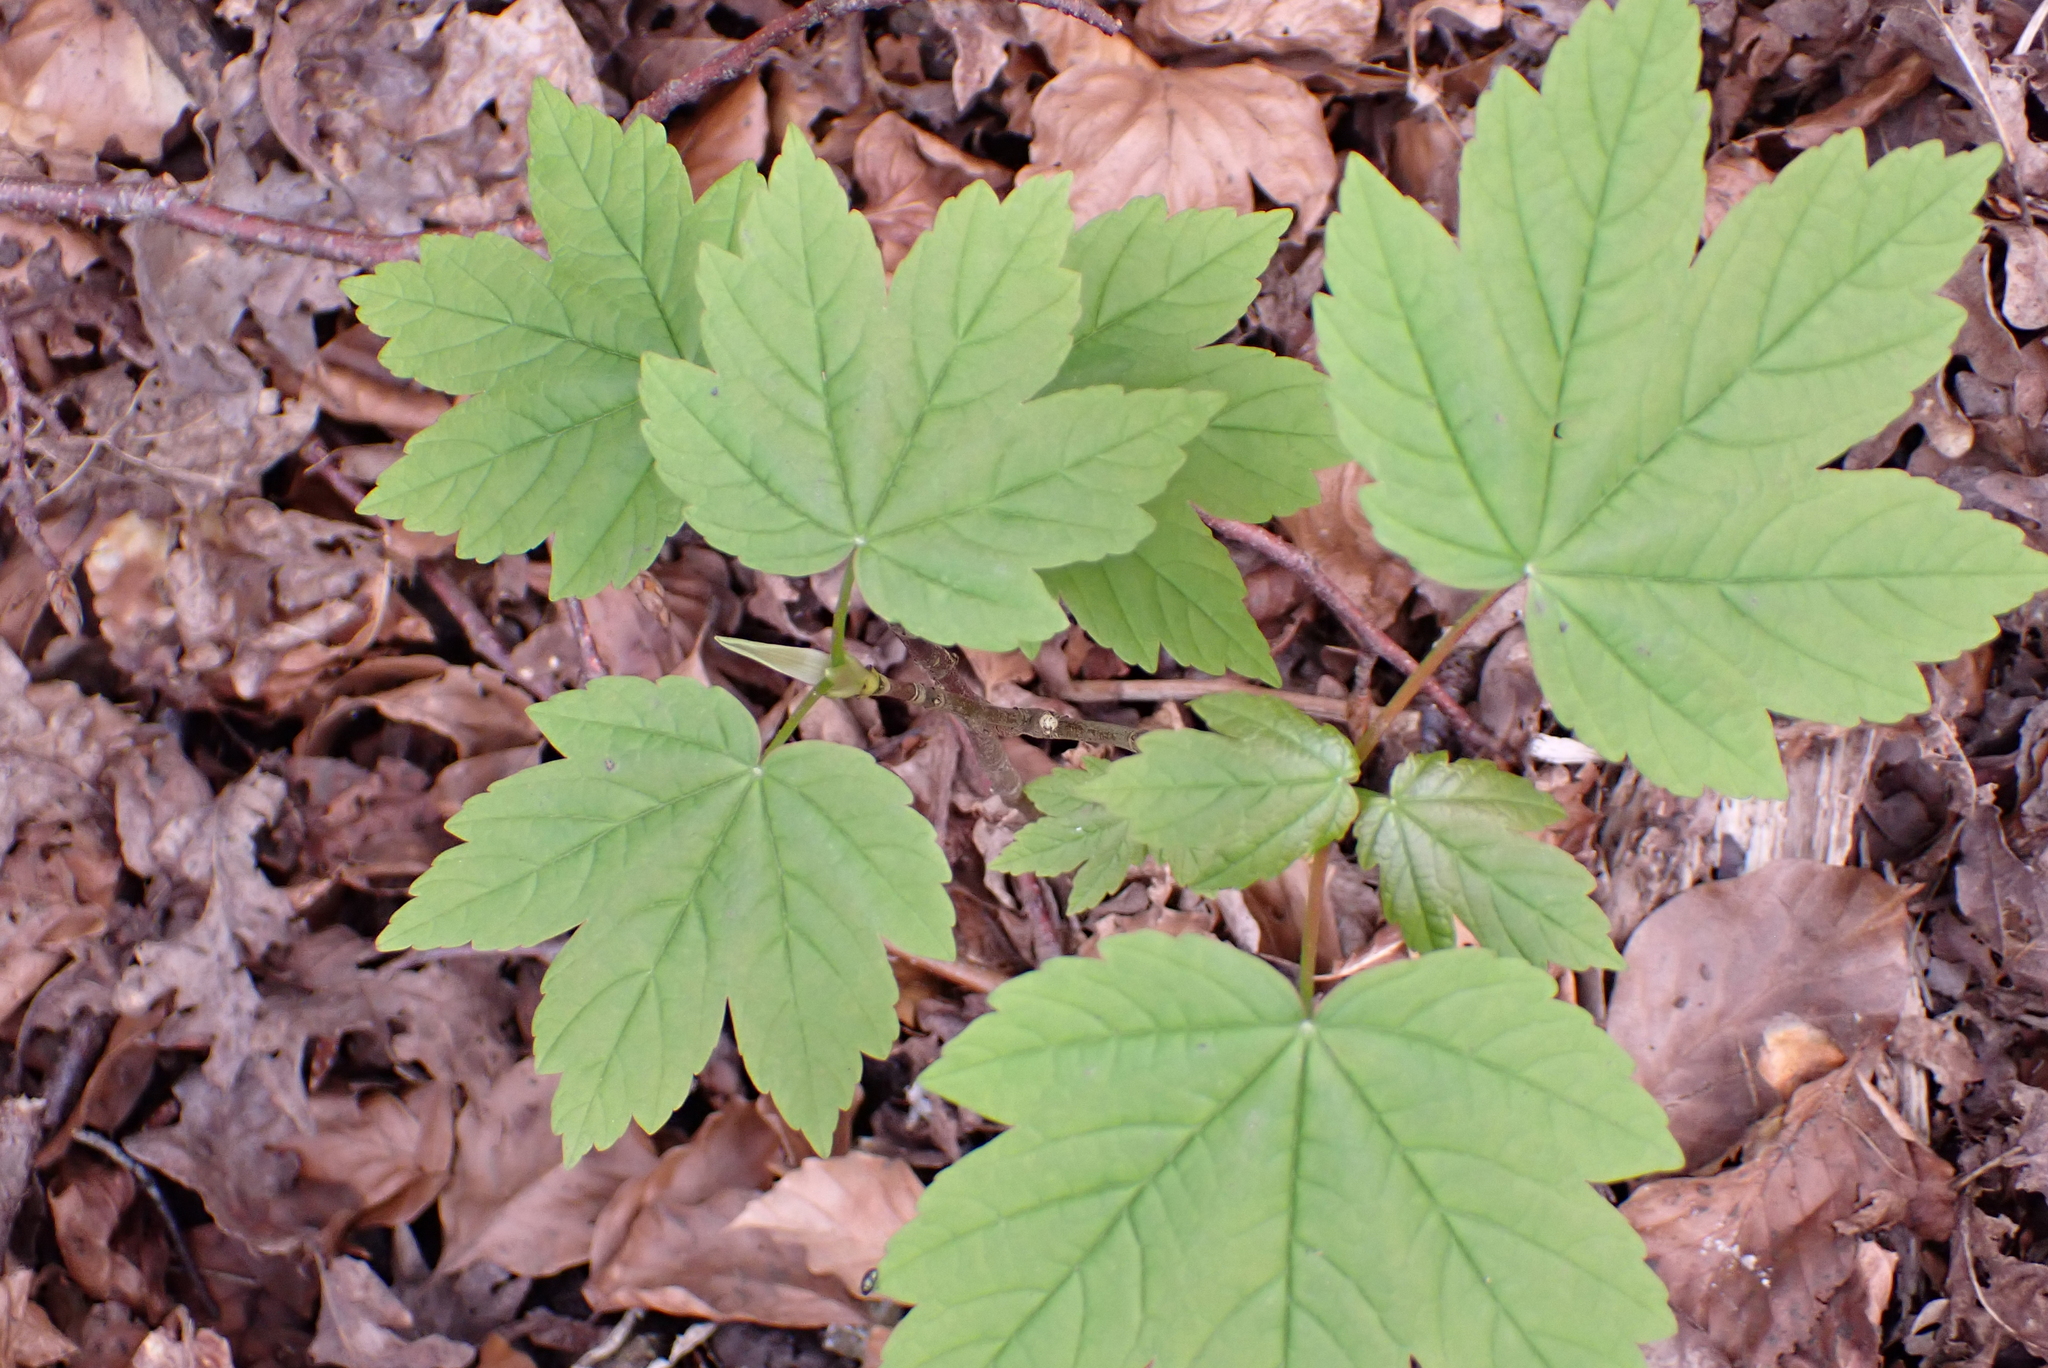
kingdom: Plantae
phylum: Tracheophyta
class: Magnoliopsida
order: Sapindales
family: Sapindaceae
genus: Acer
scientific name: Acer pseudoplatanus
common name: Sycamore
